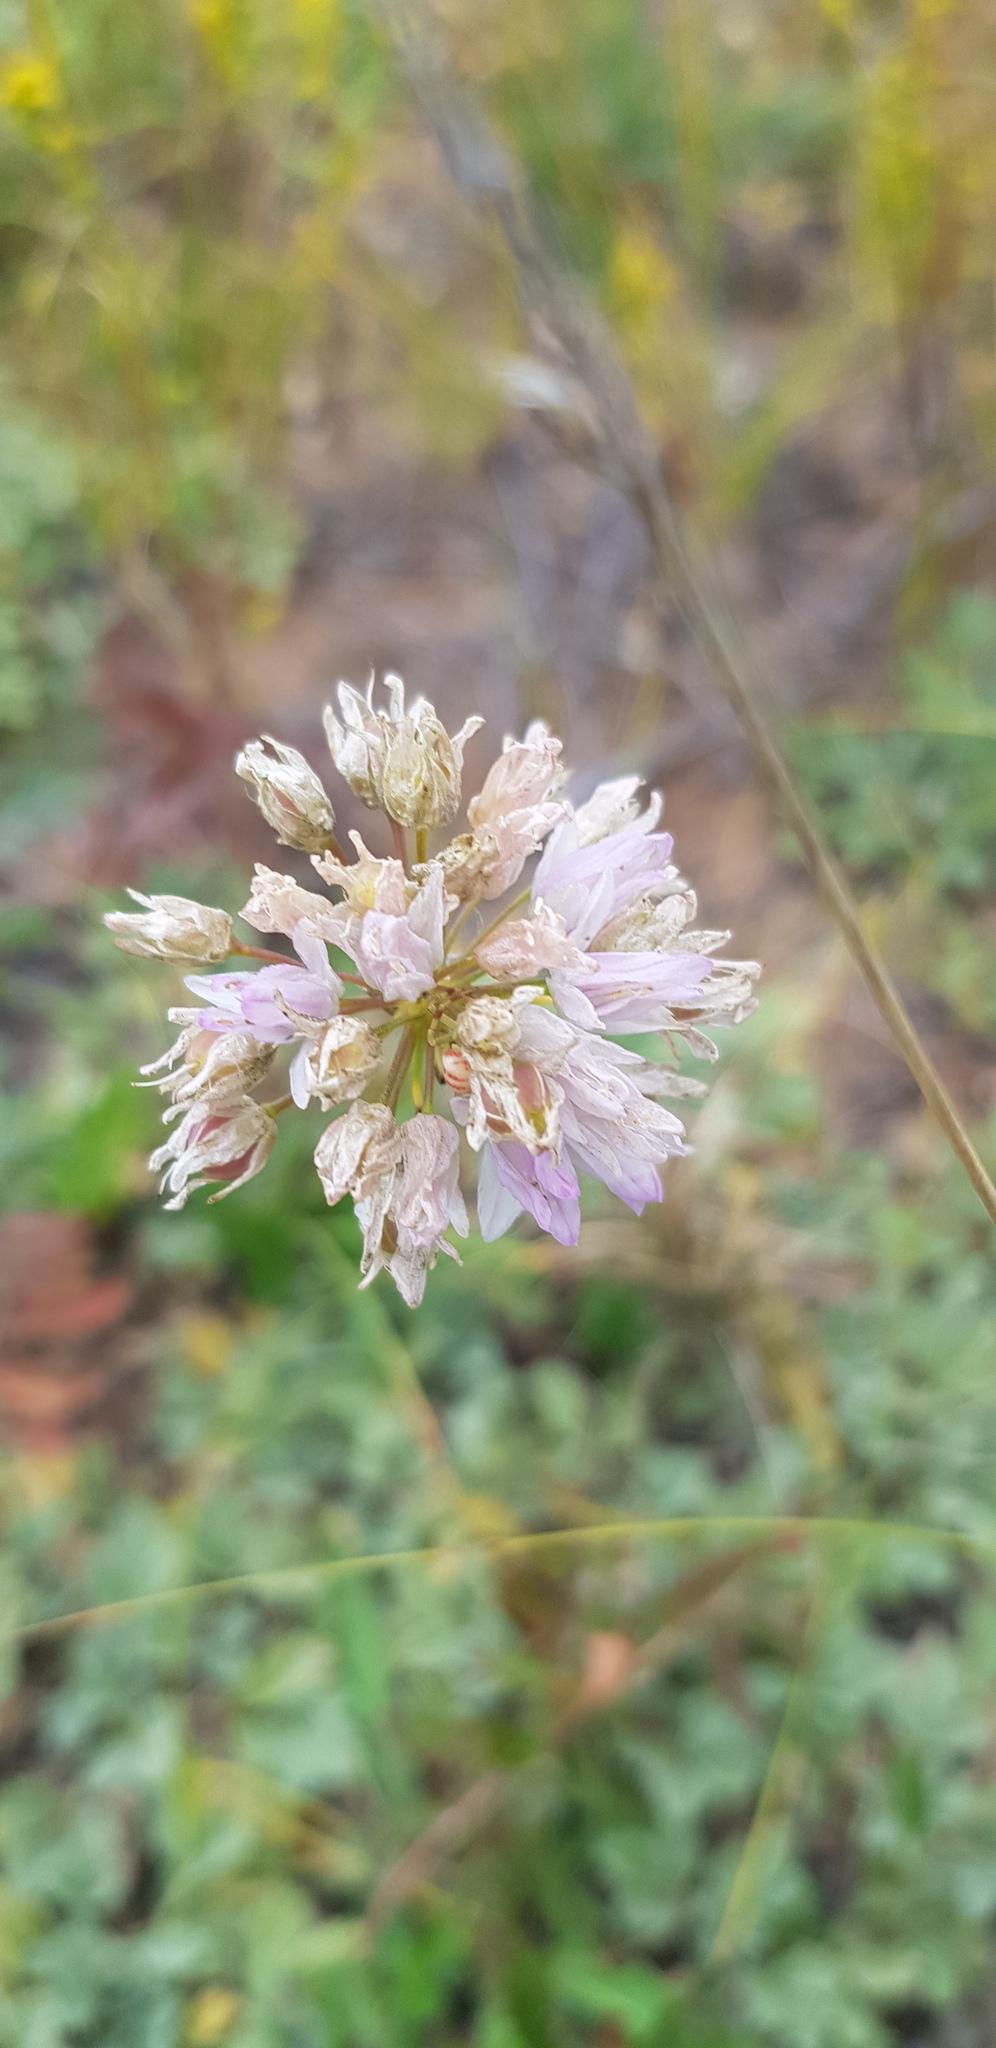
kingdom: Plantae
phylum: Tracheophyta
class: Liliopsida
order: Asparagales
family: Amaryllidaceae
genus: Allium
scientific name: Allium senescens
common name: German garlic
